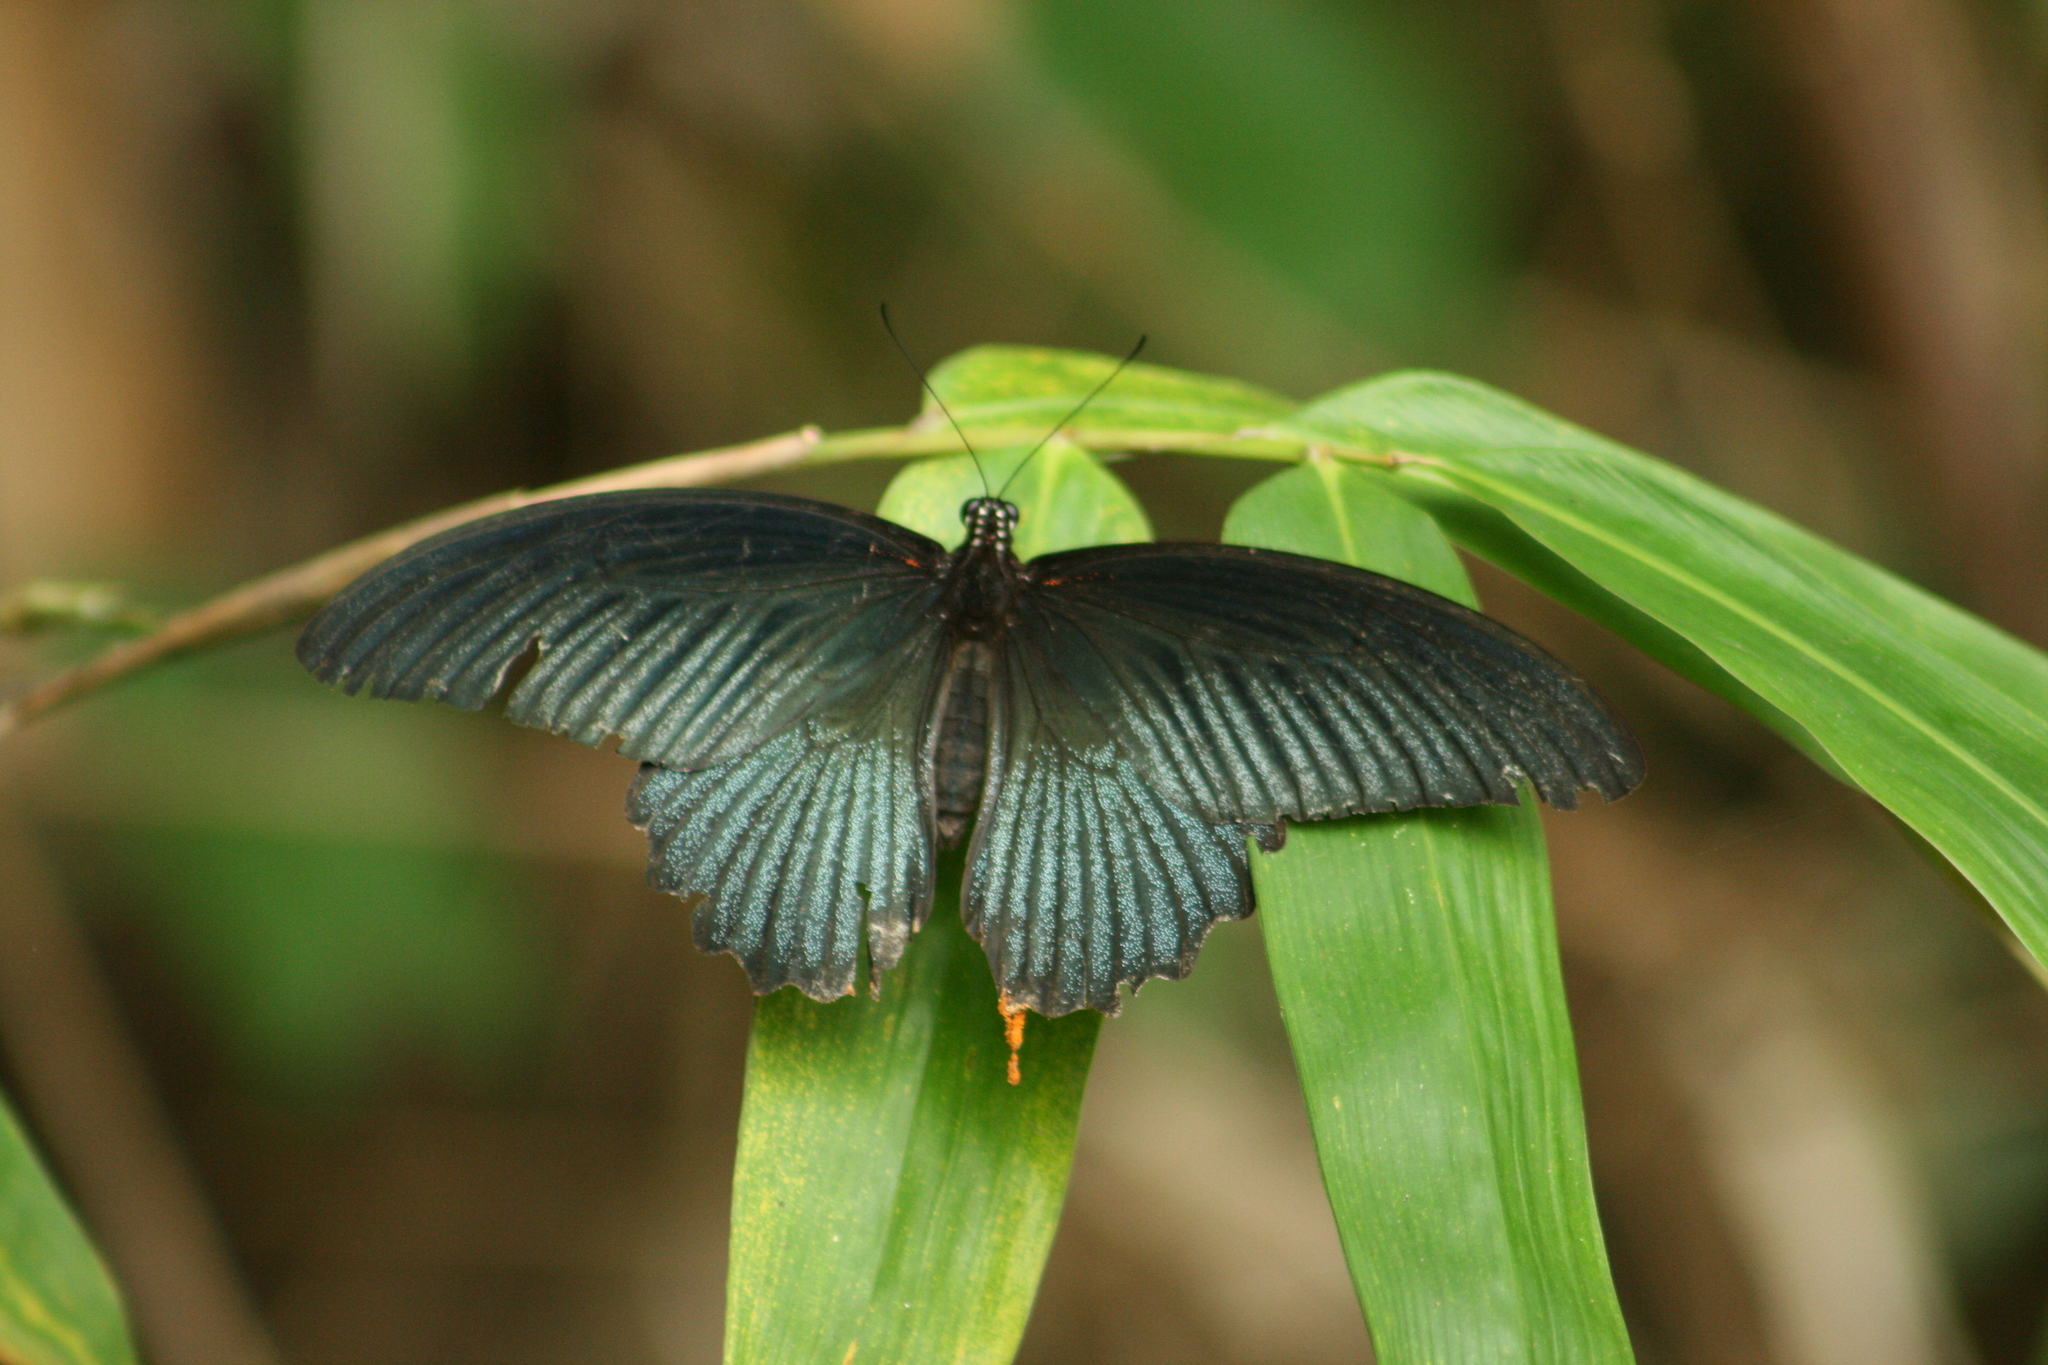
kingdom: Animalia
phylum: Arthropoda
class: Insecta
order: Lepidoptera
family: Papilionidae
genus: Papilio
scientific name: Papilio memnon
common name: Great mormon
